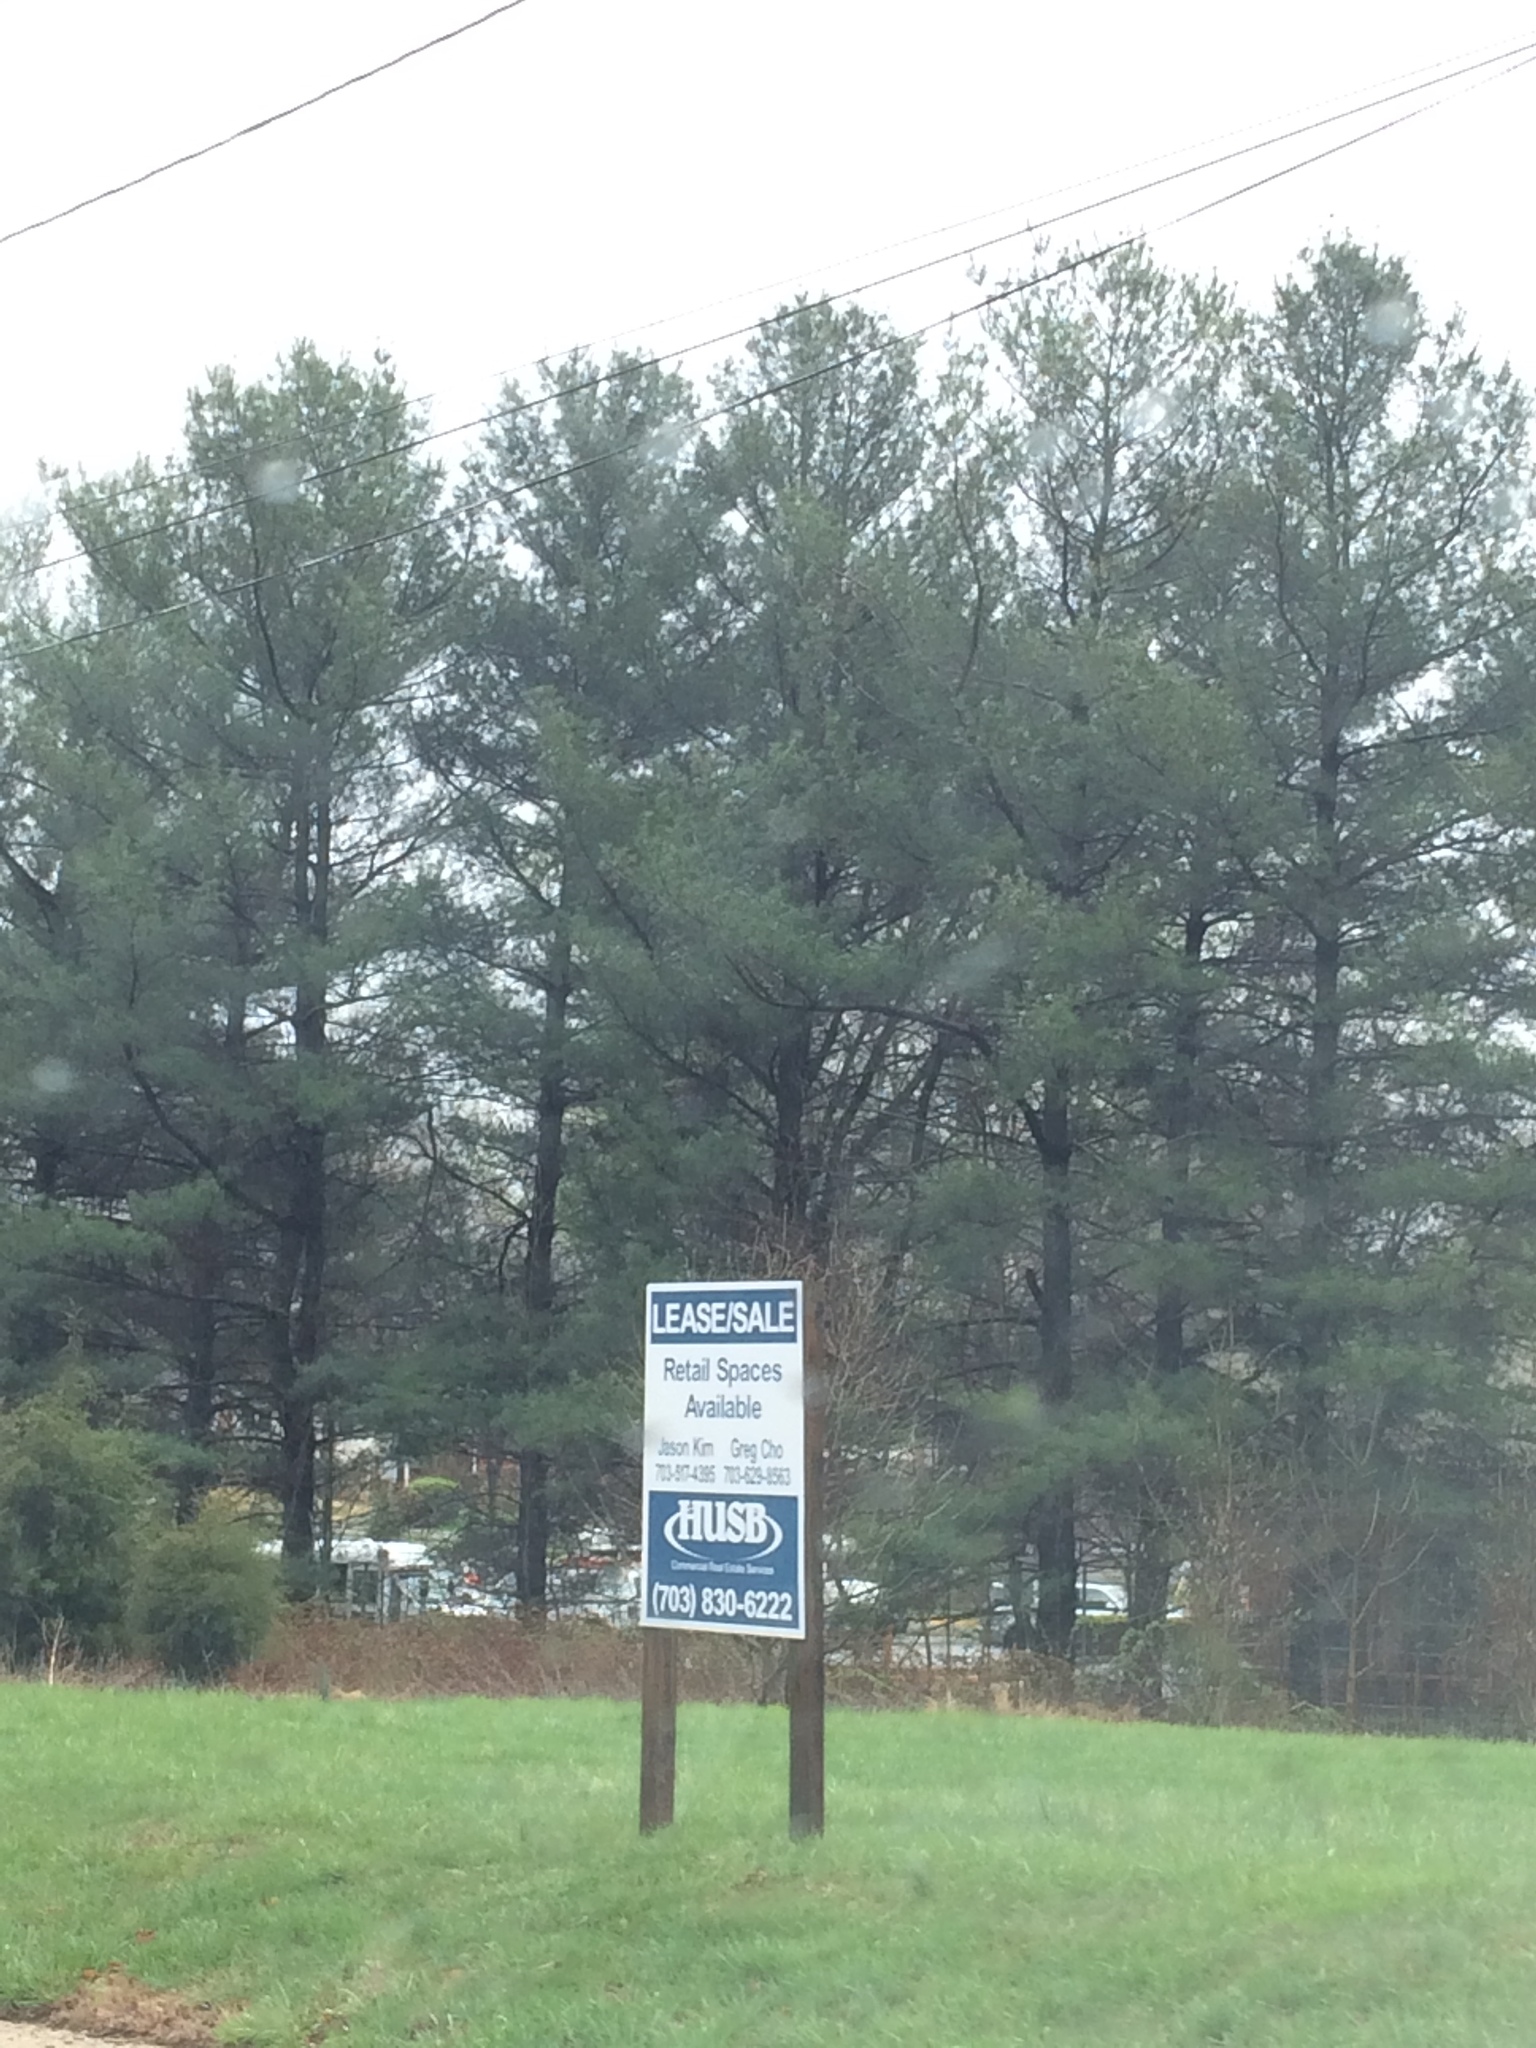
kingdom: Plantae
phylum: Tracheophyta
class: Pinopsida
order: Pinales
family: Pinaceae
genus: Pinus
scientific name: Pinus strobus
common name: Weymouth pine
